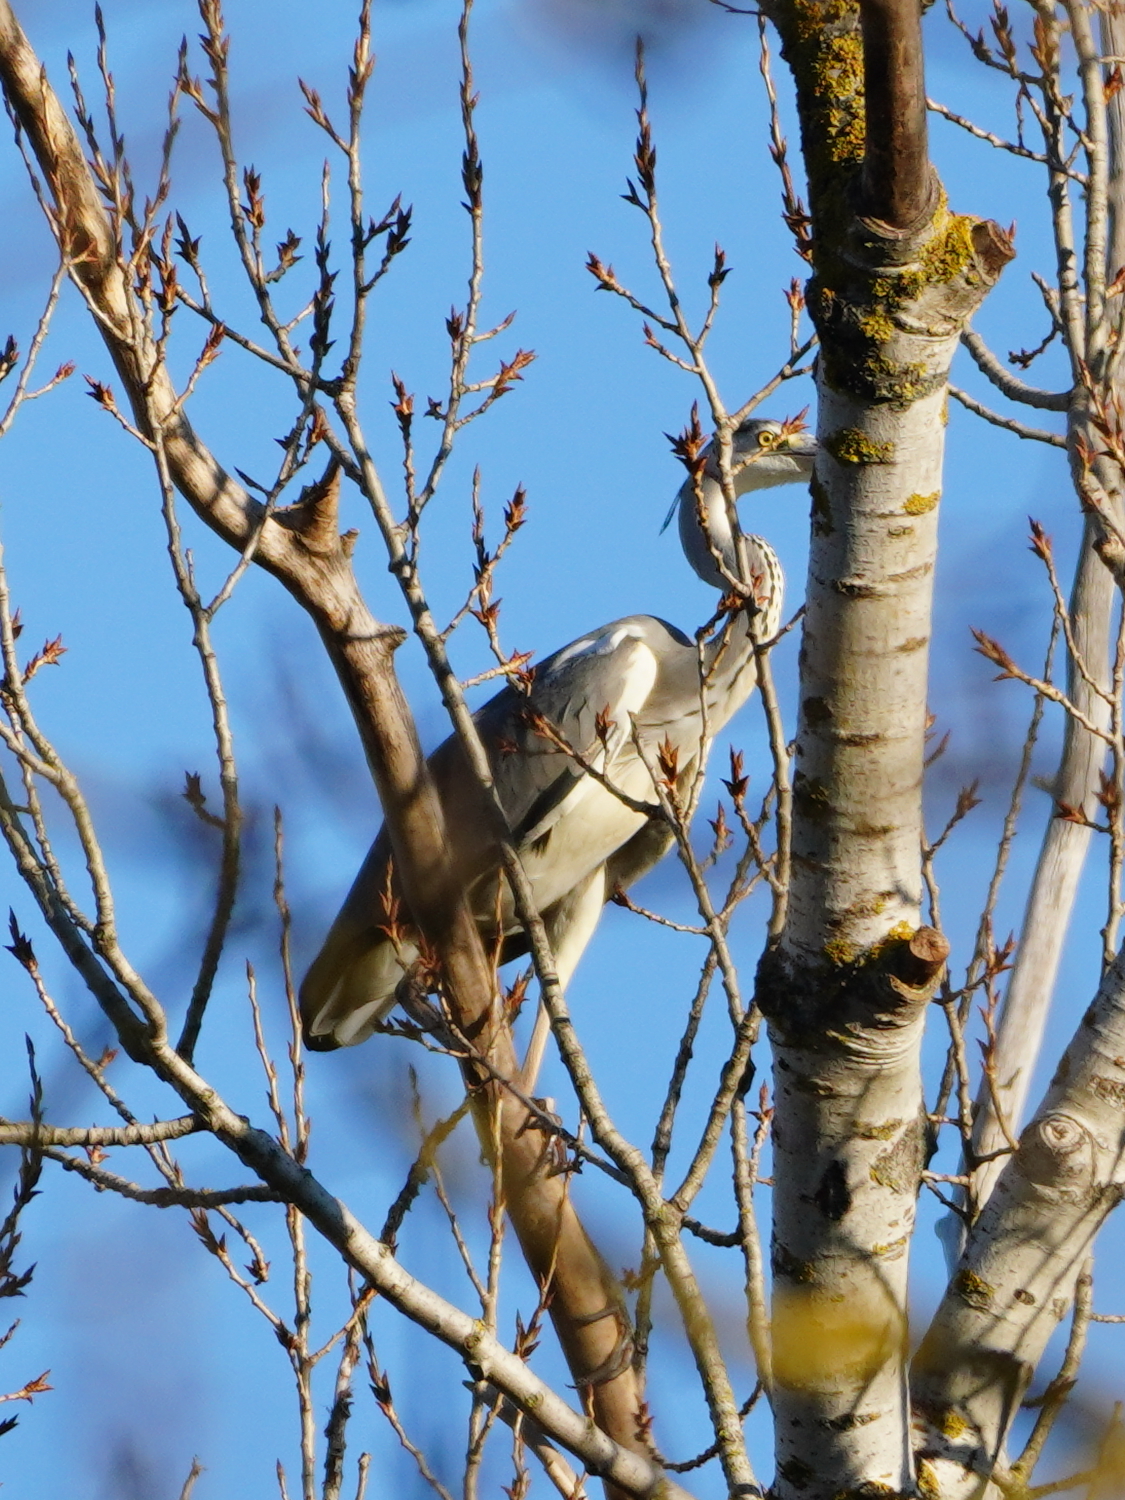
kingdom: Animalia
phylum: Chordata
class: Aves
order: Pelecaniformes
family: Ardeidae
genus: Ardea
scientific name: Ardea cinerea
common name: Grey heron
